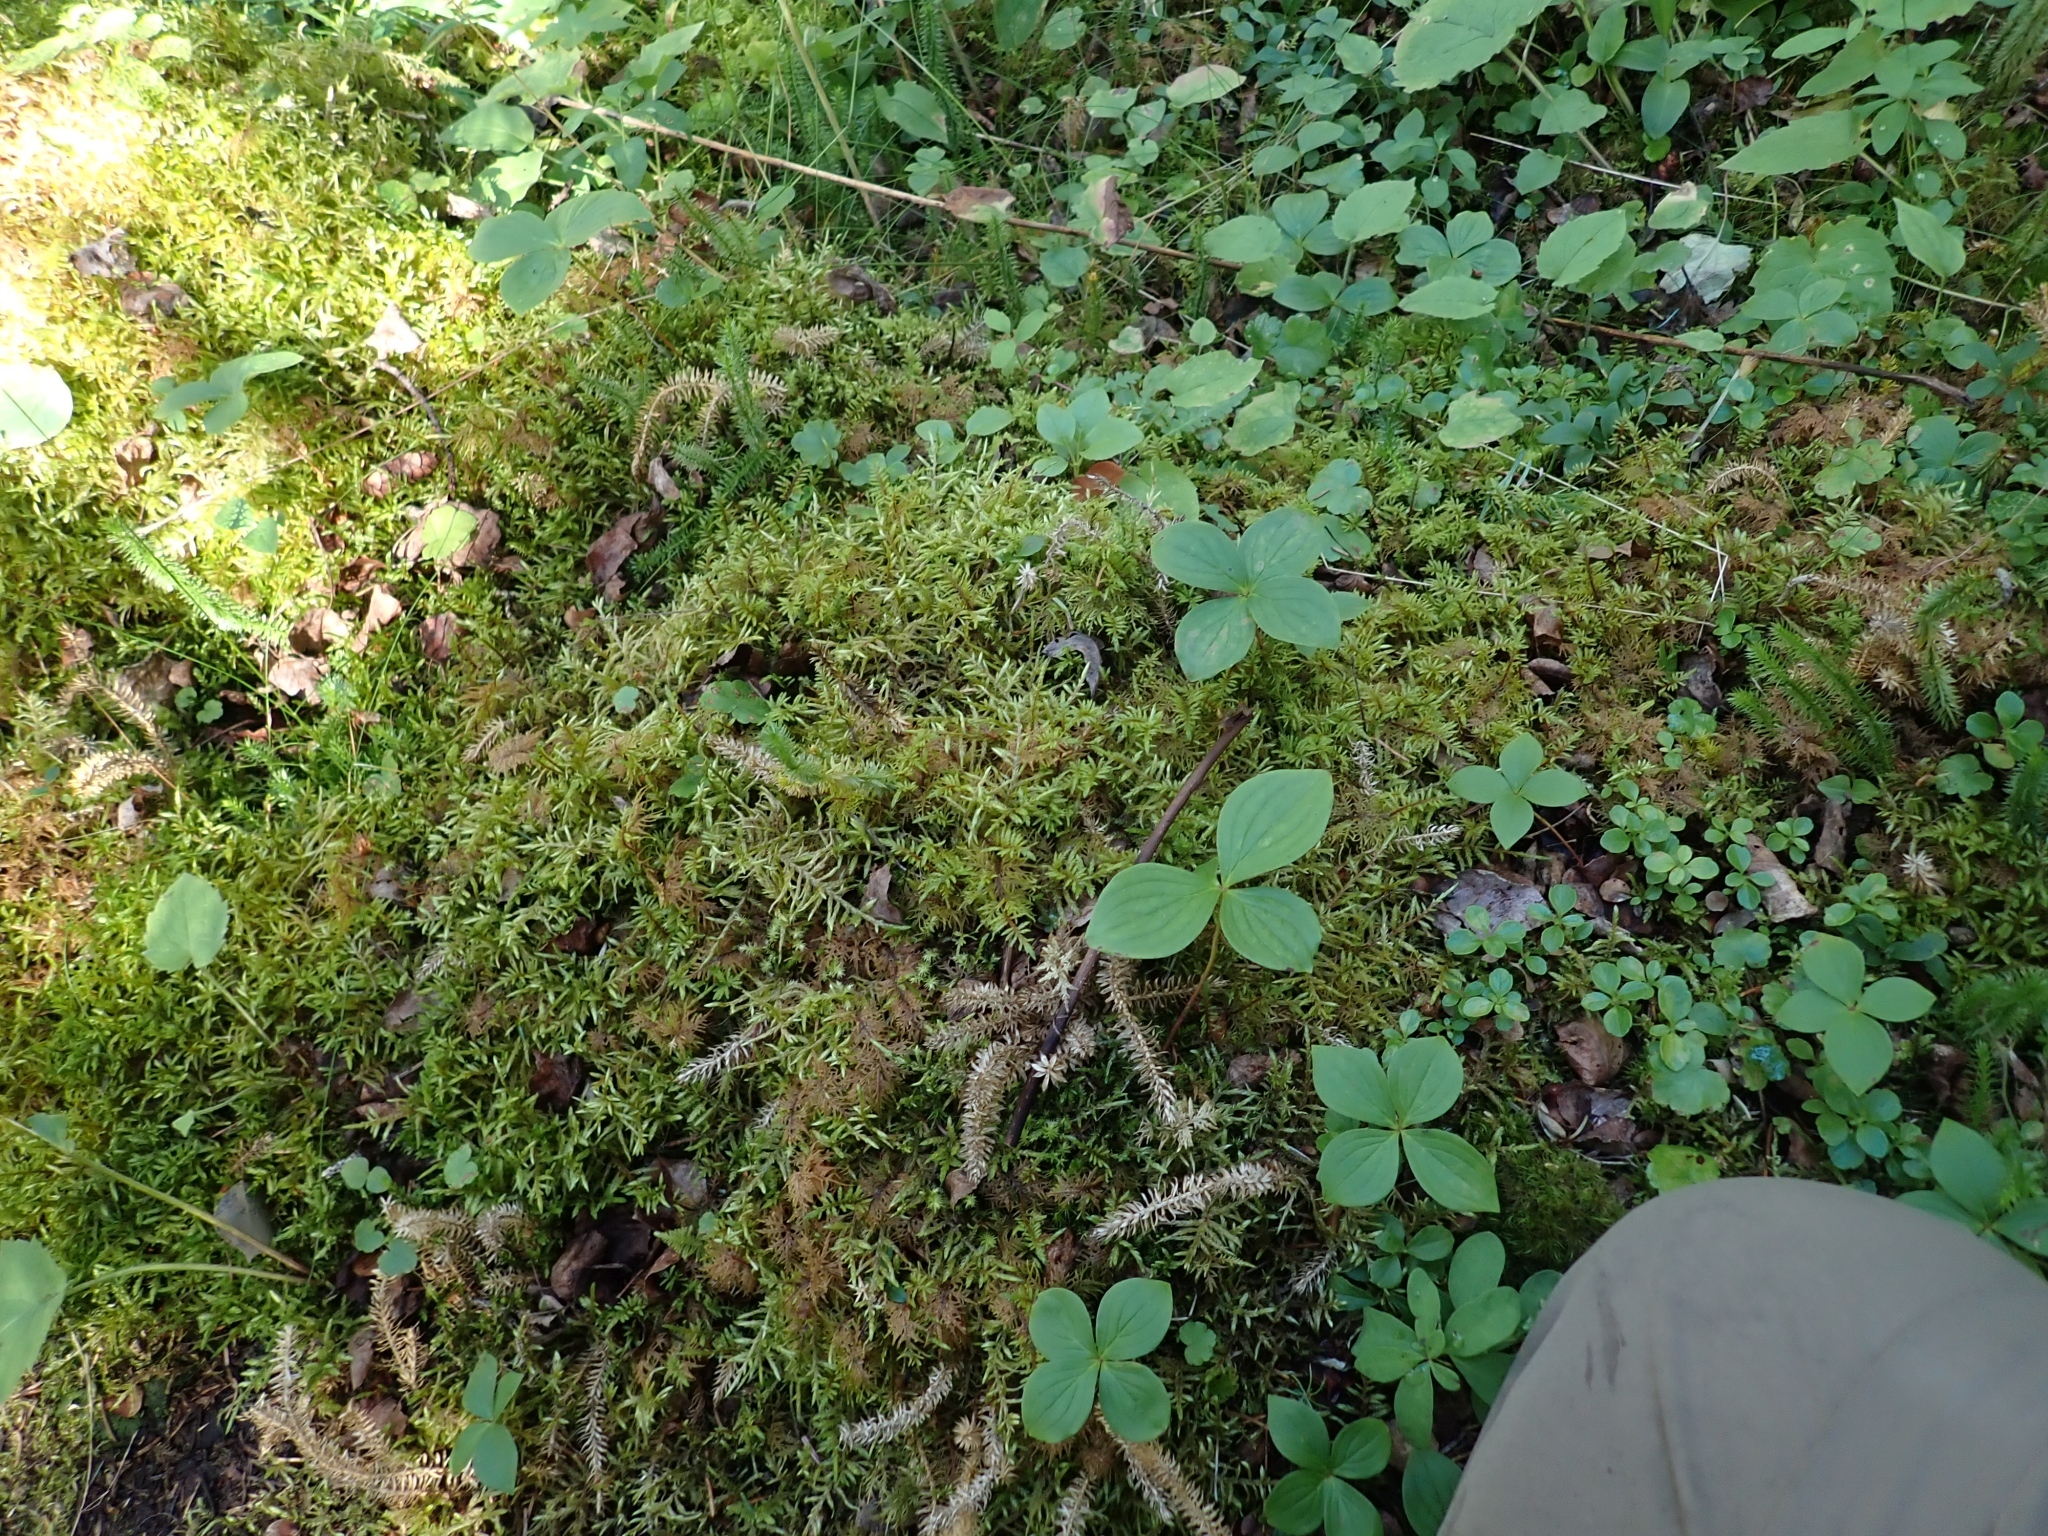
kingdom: Plantae
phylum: Bryophyta
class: Bryopsida
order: Hypnales
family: Hylocomiaceae
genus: Hylocomium
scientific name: Hylocomium splendens
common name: Stairstep moss
